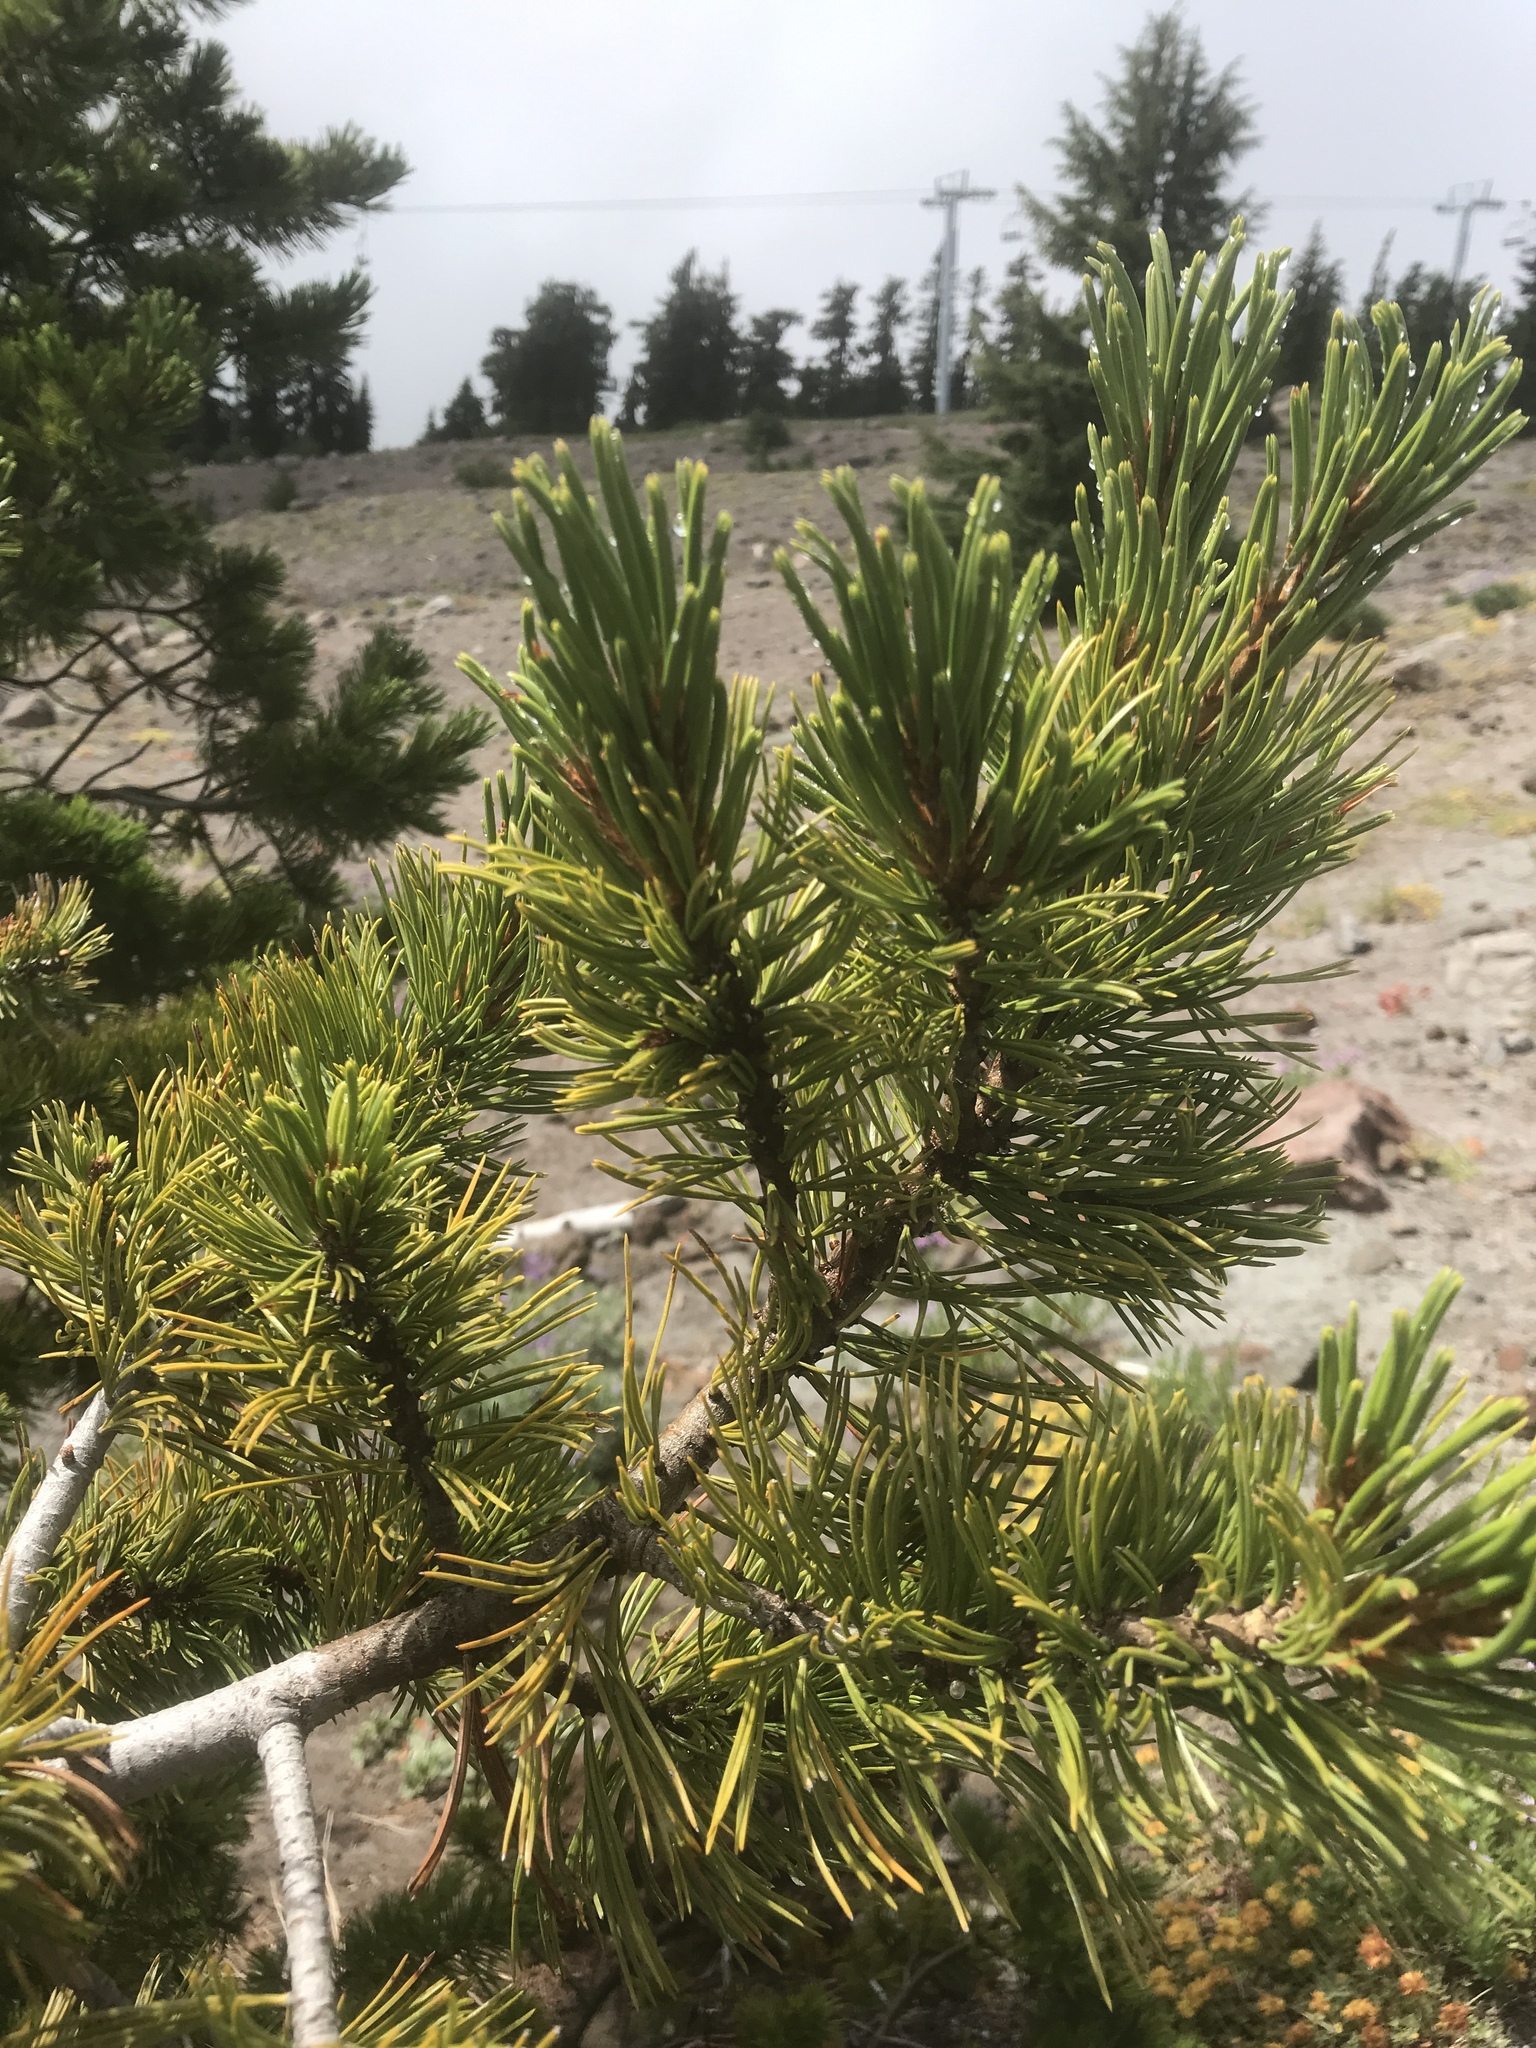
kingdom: Plantae
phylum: Tracheophyta
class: Pinopsida
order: Pinales
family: Pinaceae
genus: Pinus
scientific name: Pinus albicaulis
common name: Whitebark pine
